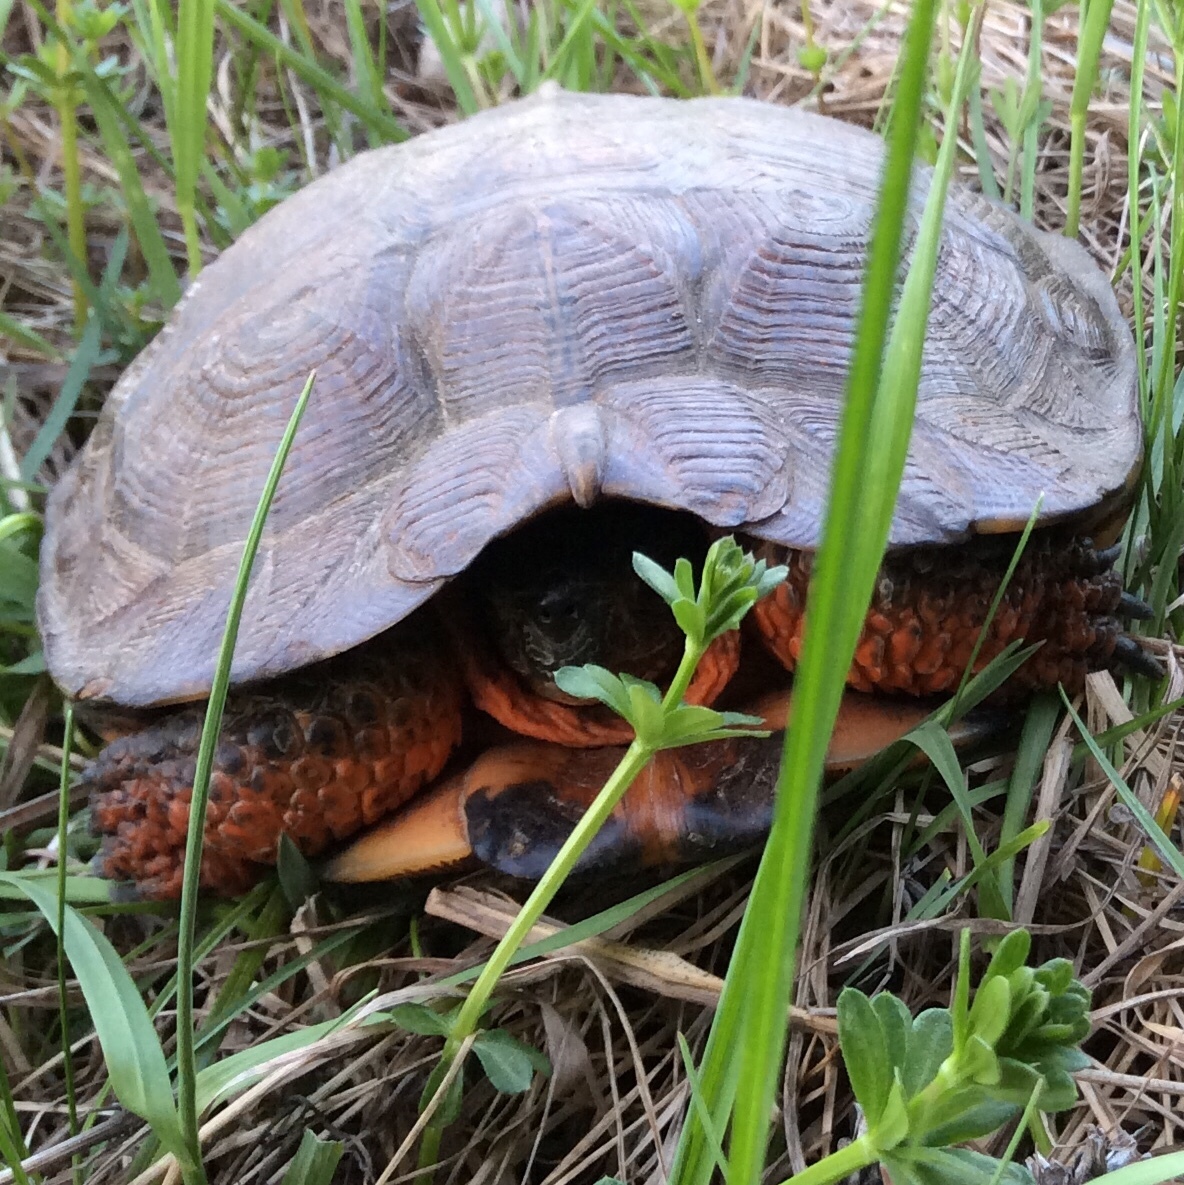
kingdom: Animalia
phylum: Chordata
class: Testudines
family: Emydidae
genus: Glyptemys
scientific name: Glyptemys insculpta
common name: Wood turtle
